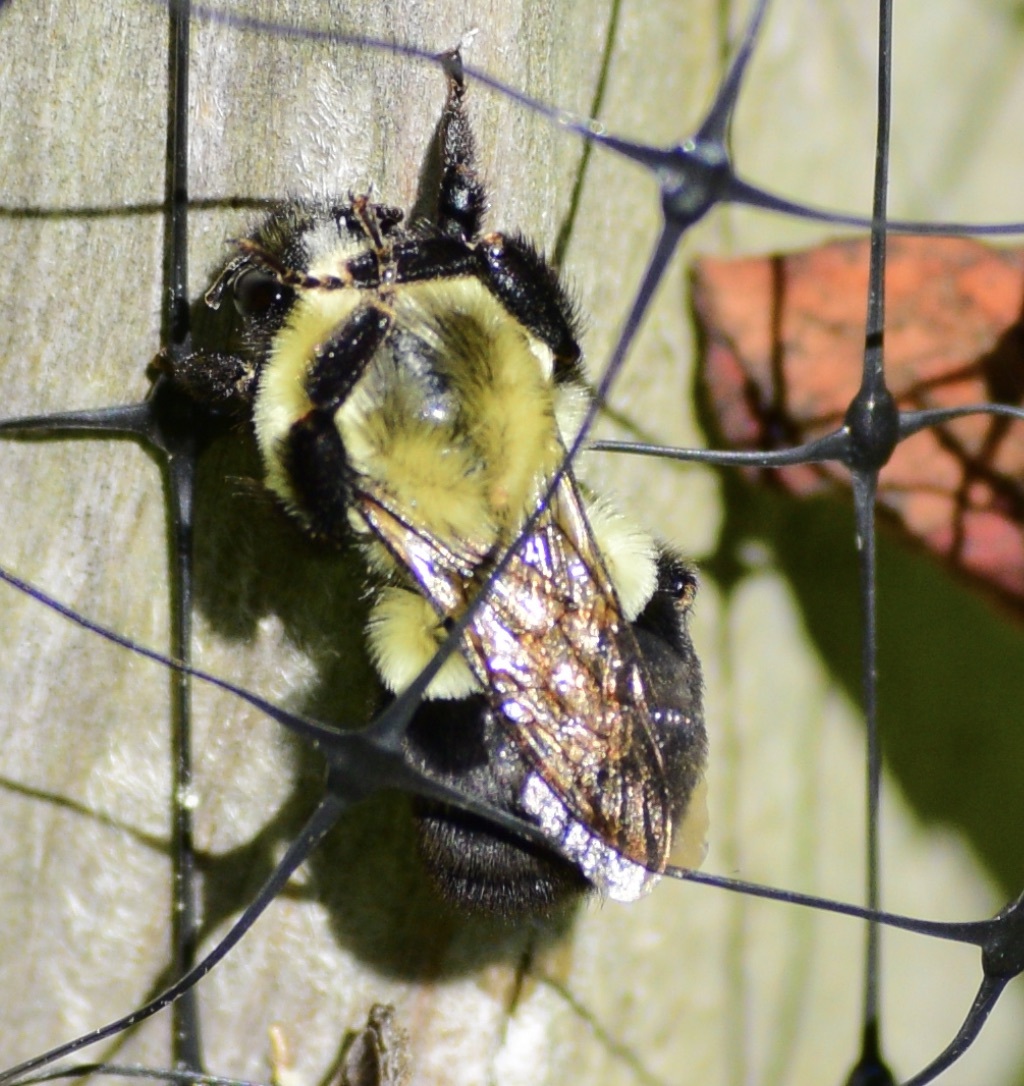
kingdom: Animalia
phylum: Arthropoda
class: Insecta
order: Hymenoptera
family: Apidae
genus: Bombus
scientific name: Bombus impatiens
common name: Common eastern bumble bee
